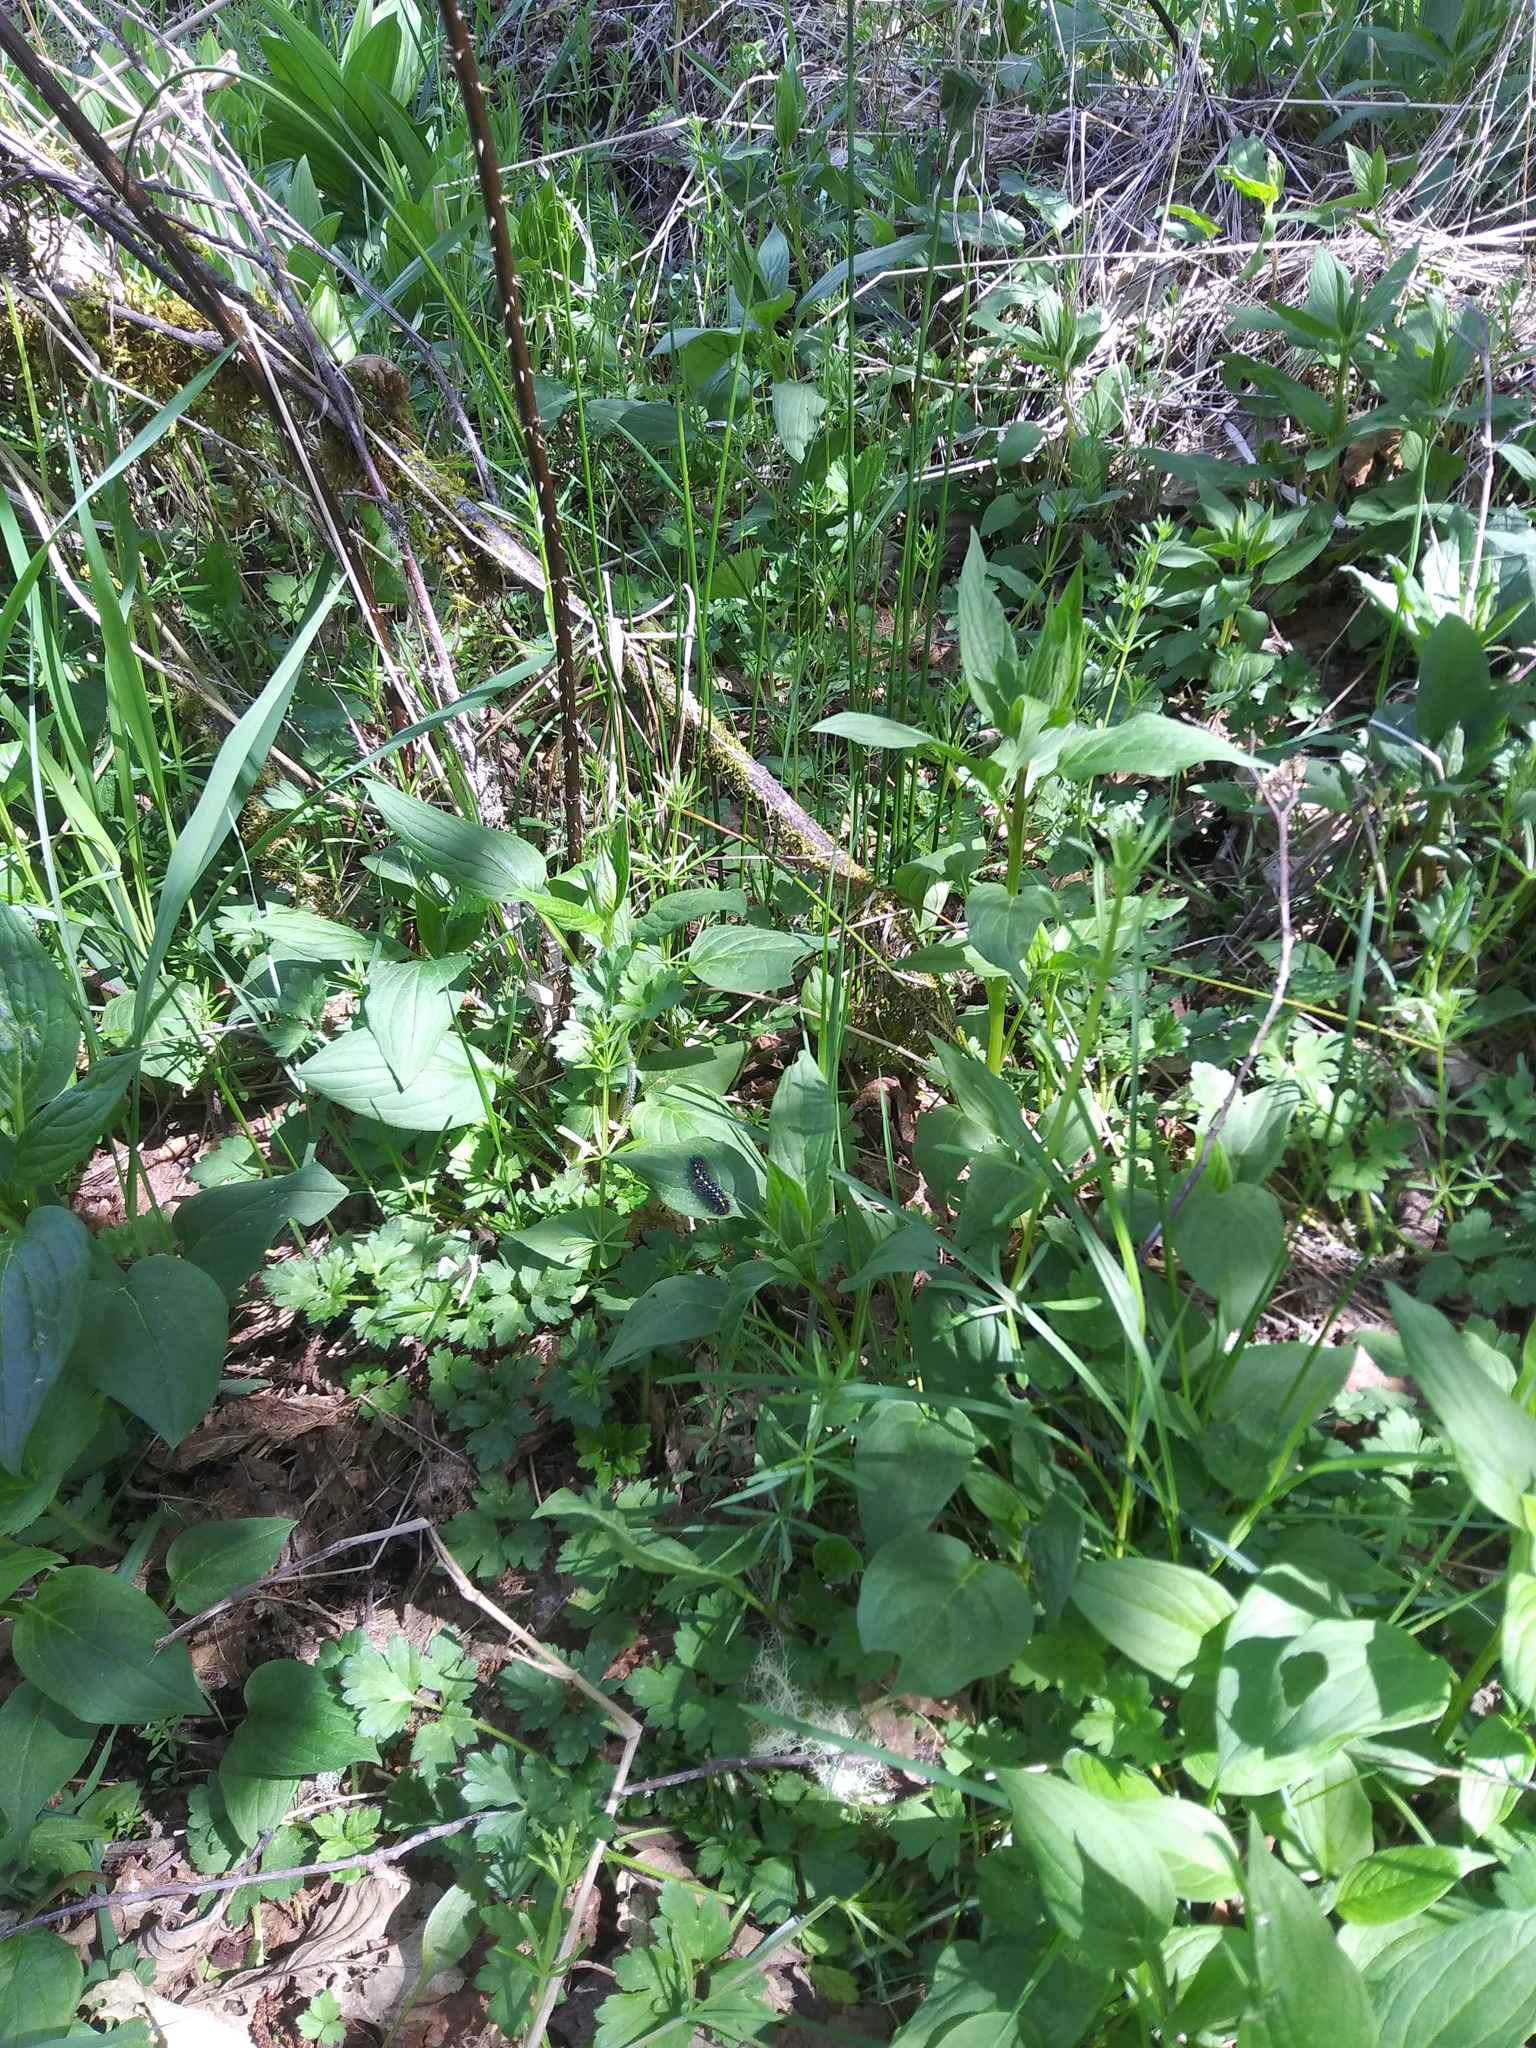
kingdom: Animalia
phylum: Arthropoda
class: Insecta
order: Lepidoptera
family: Erebidae
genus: Gnophaela
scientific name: Gnophaela vermiculata
